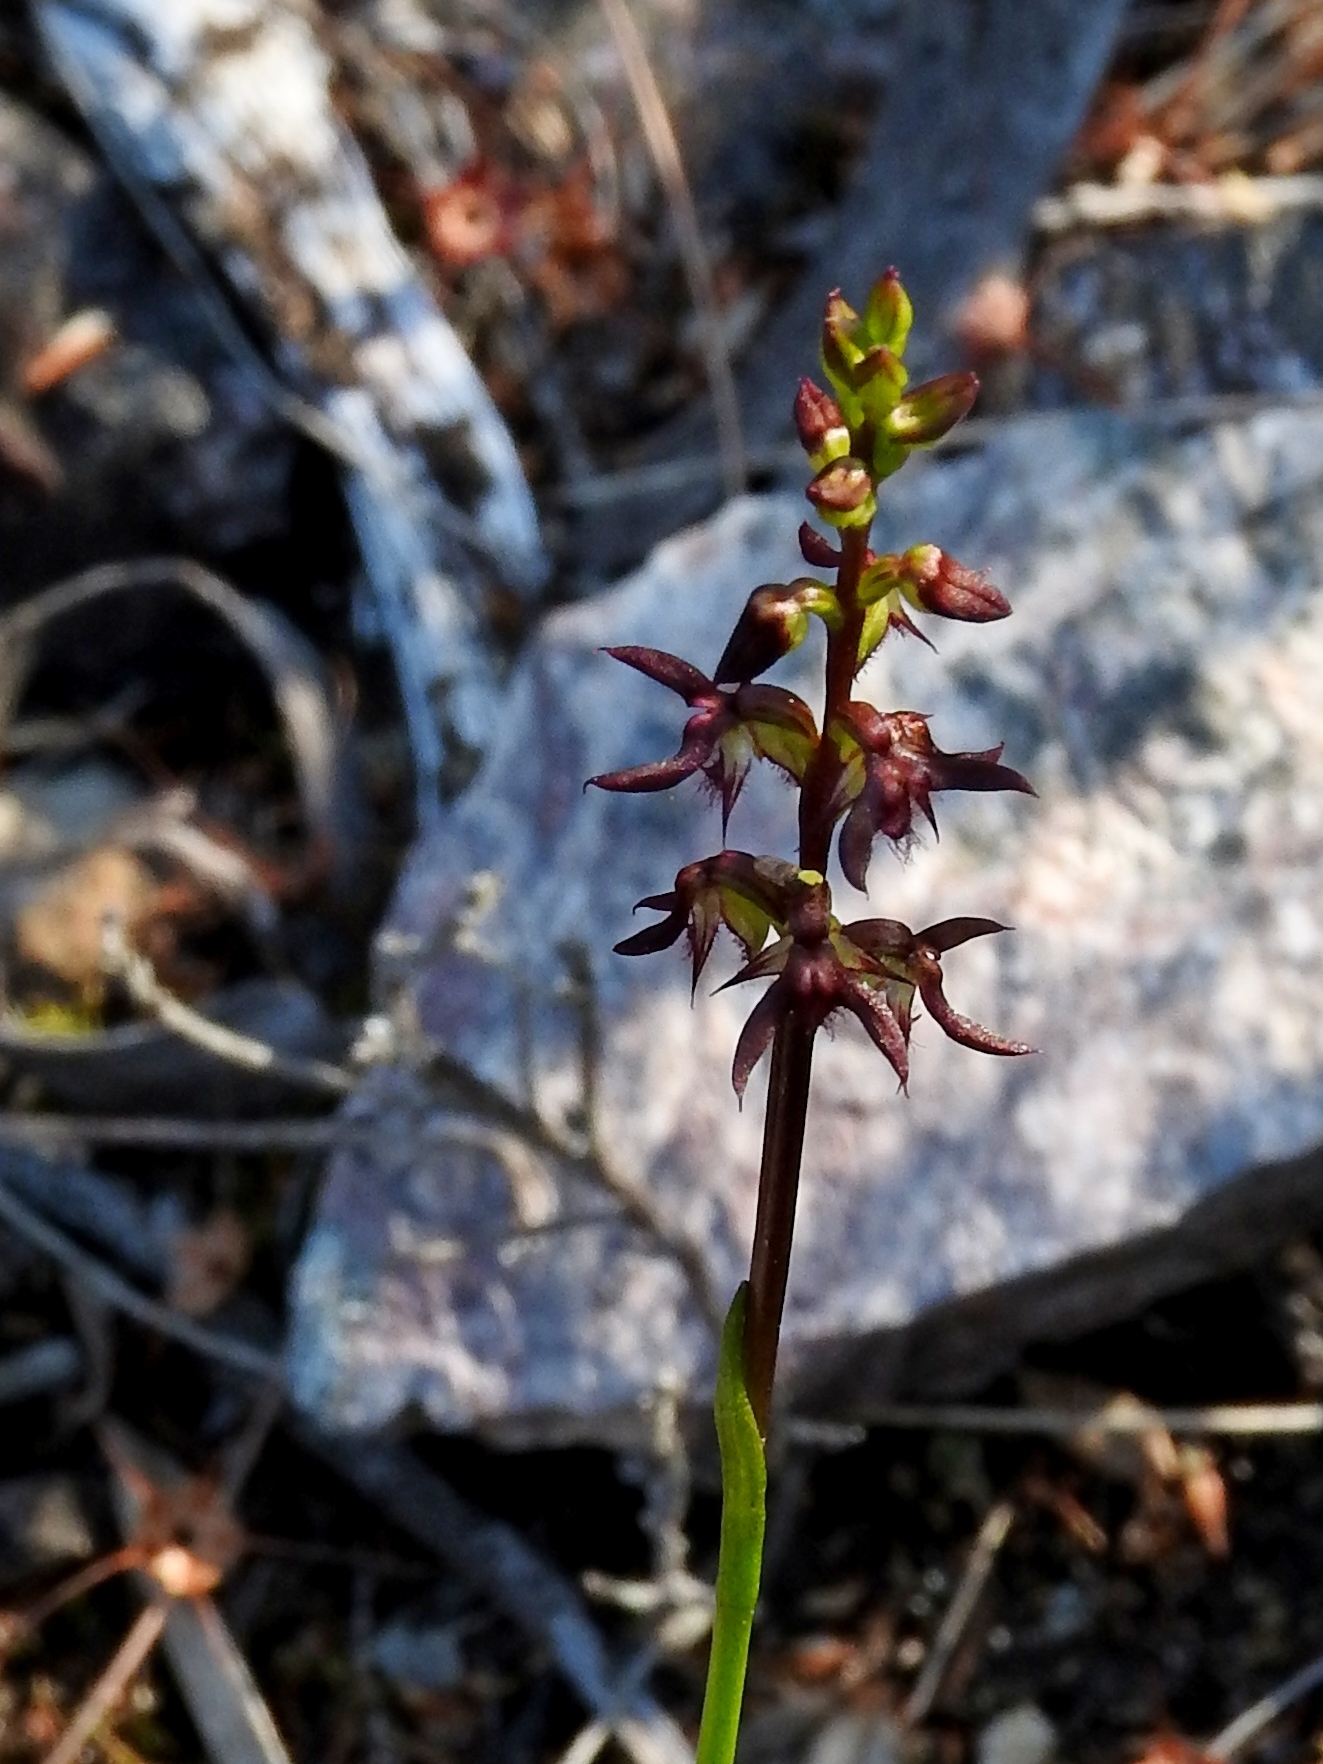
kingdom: Plantae
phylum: Tracheophyta
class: Liliopsida
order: Asparagales
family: Orchidaceae
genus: Genoplesium
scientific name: Genoplesium rhyoliticum
